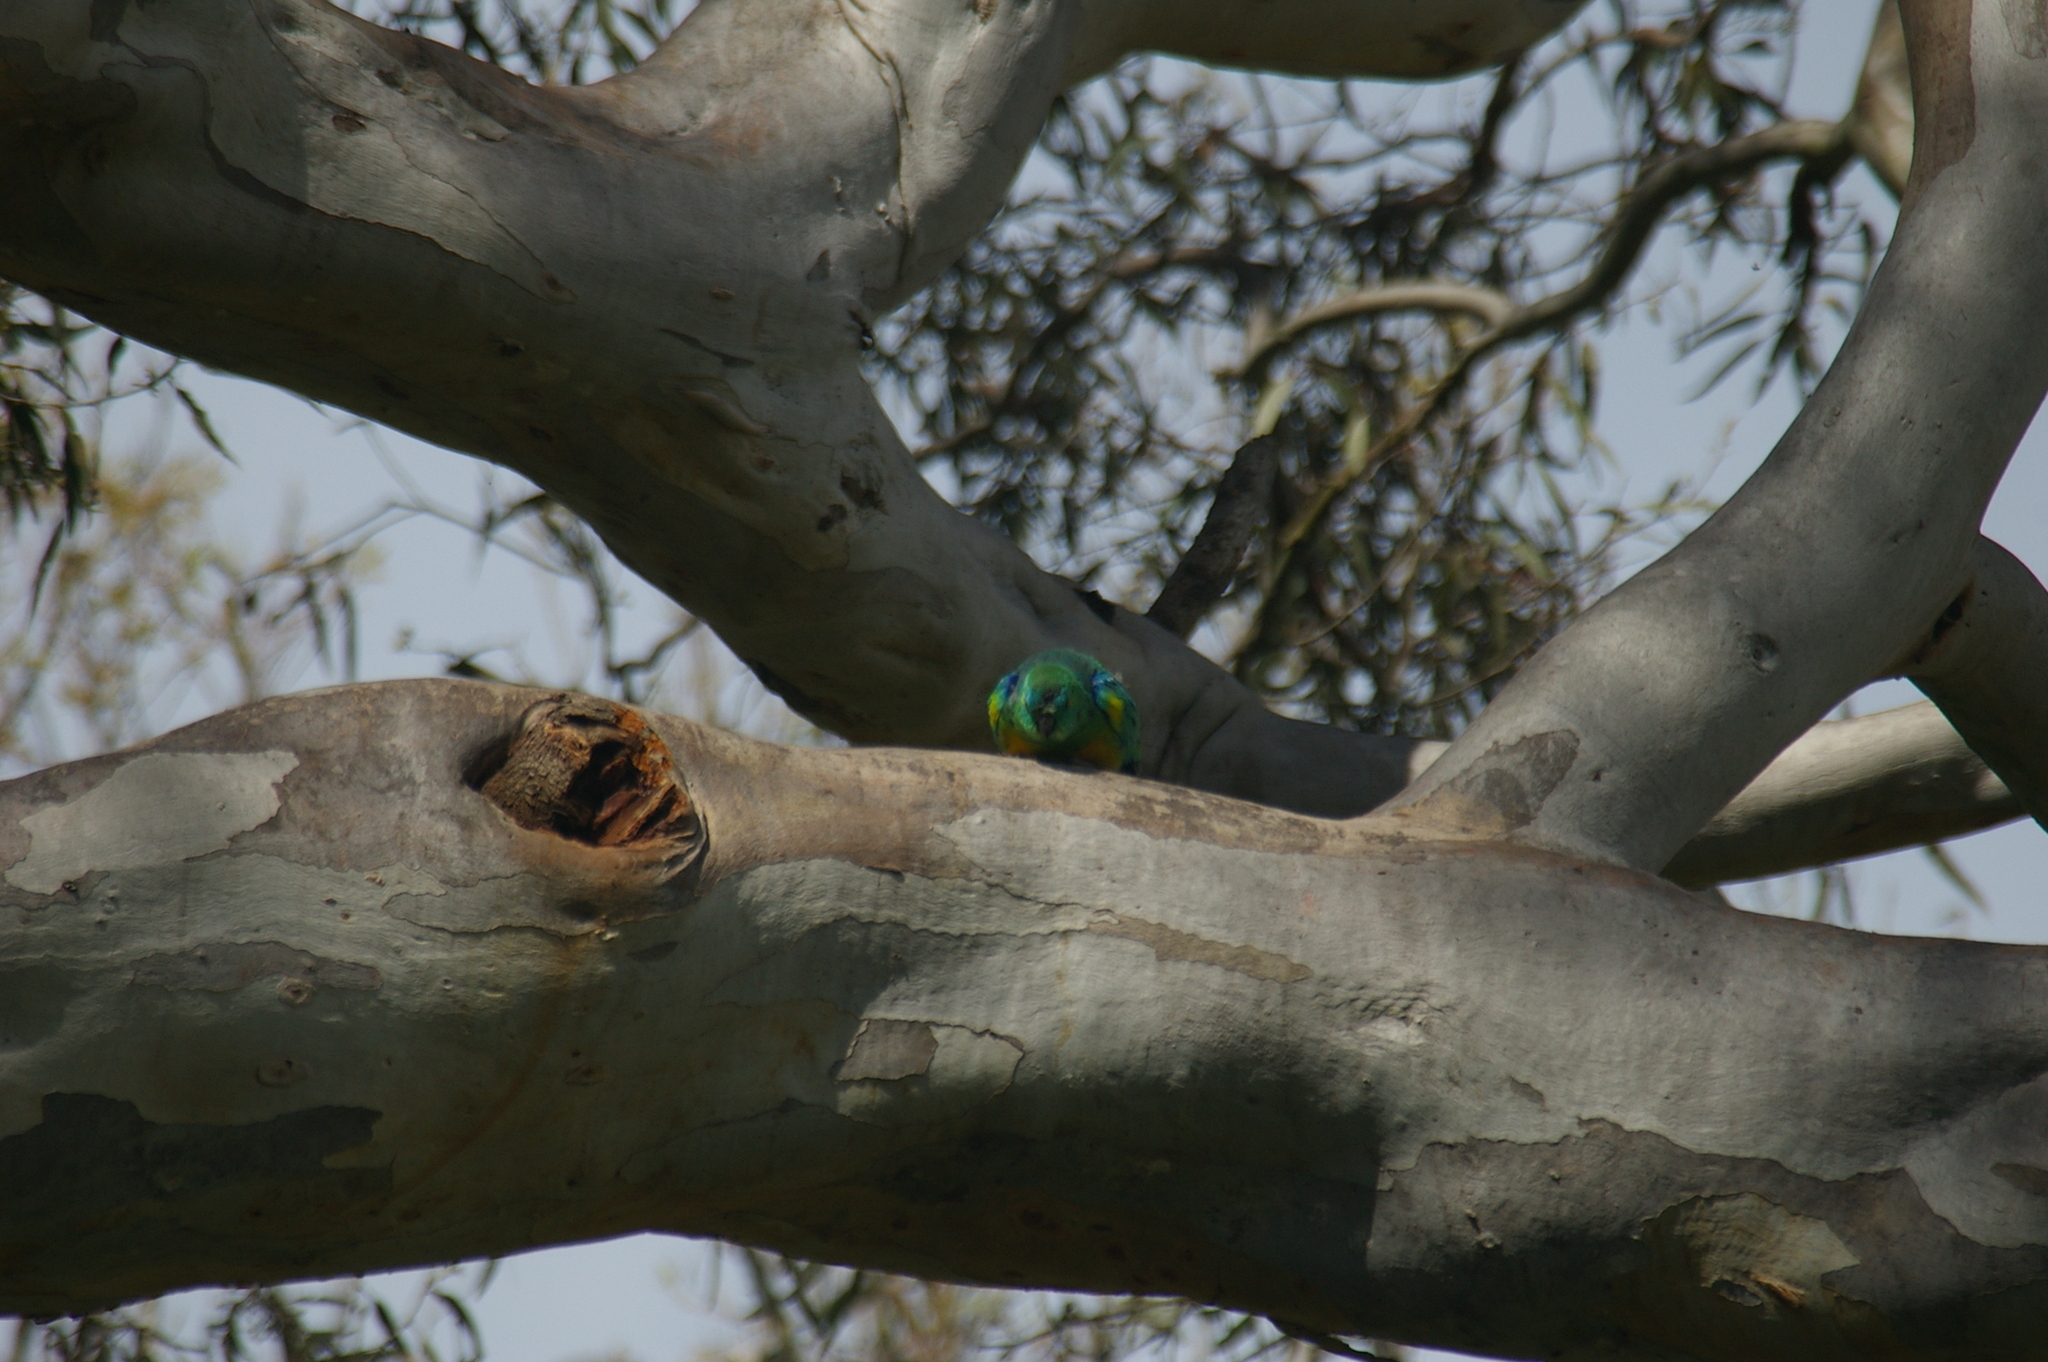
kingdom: Animalia
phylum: Chordata
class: Aves
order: Psittaciformes
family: Psittacidae
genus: Psephotus
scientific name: Psephotus haematonotus
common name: Red-rumped parrot
